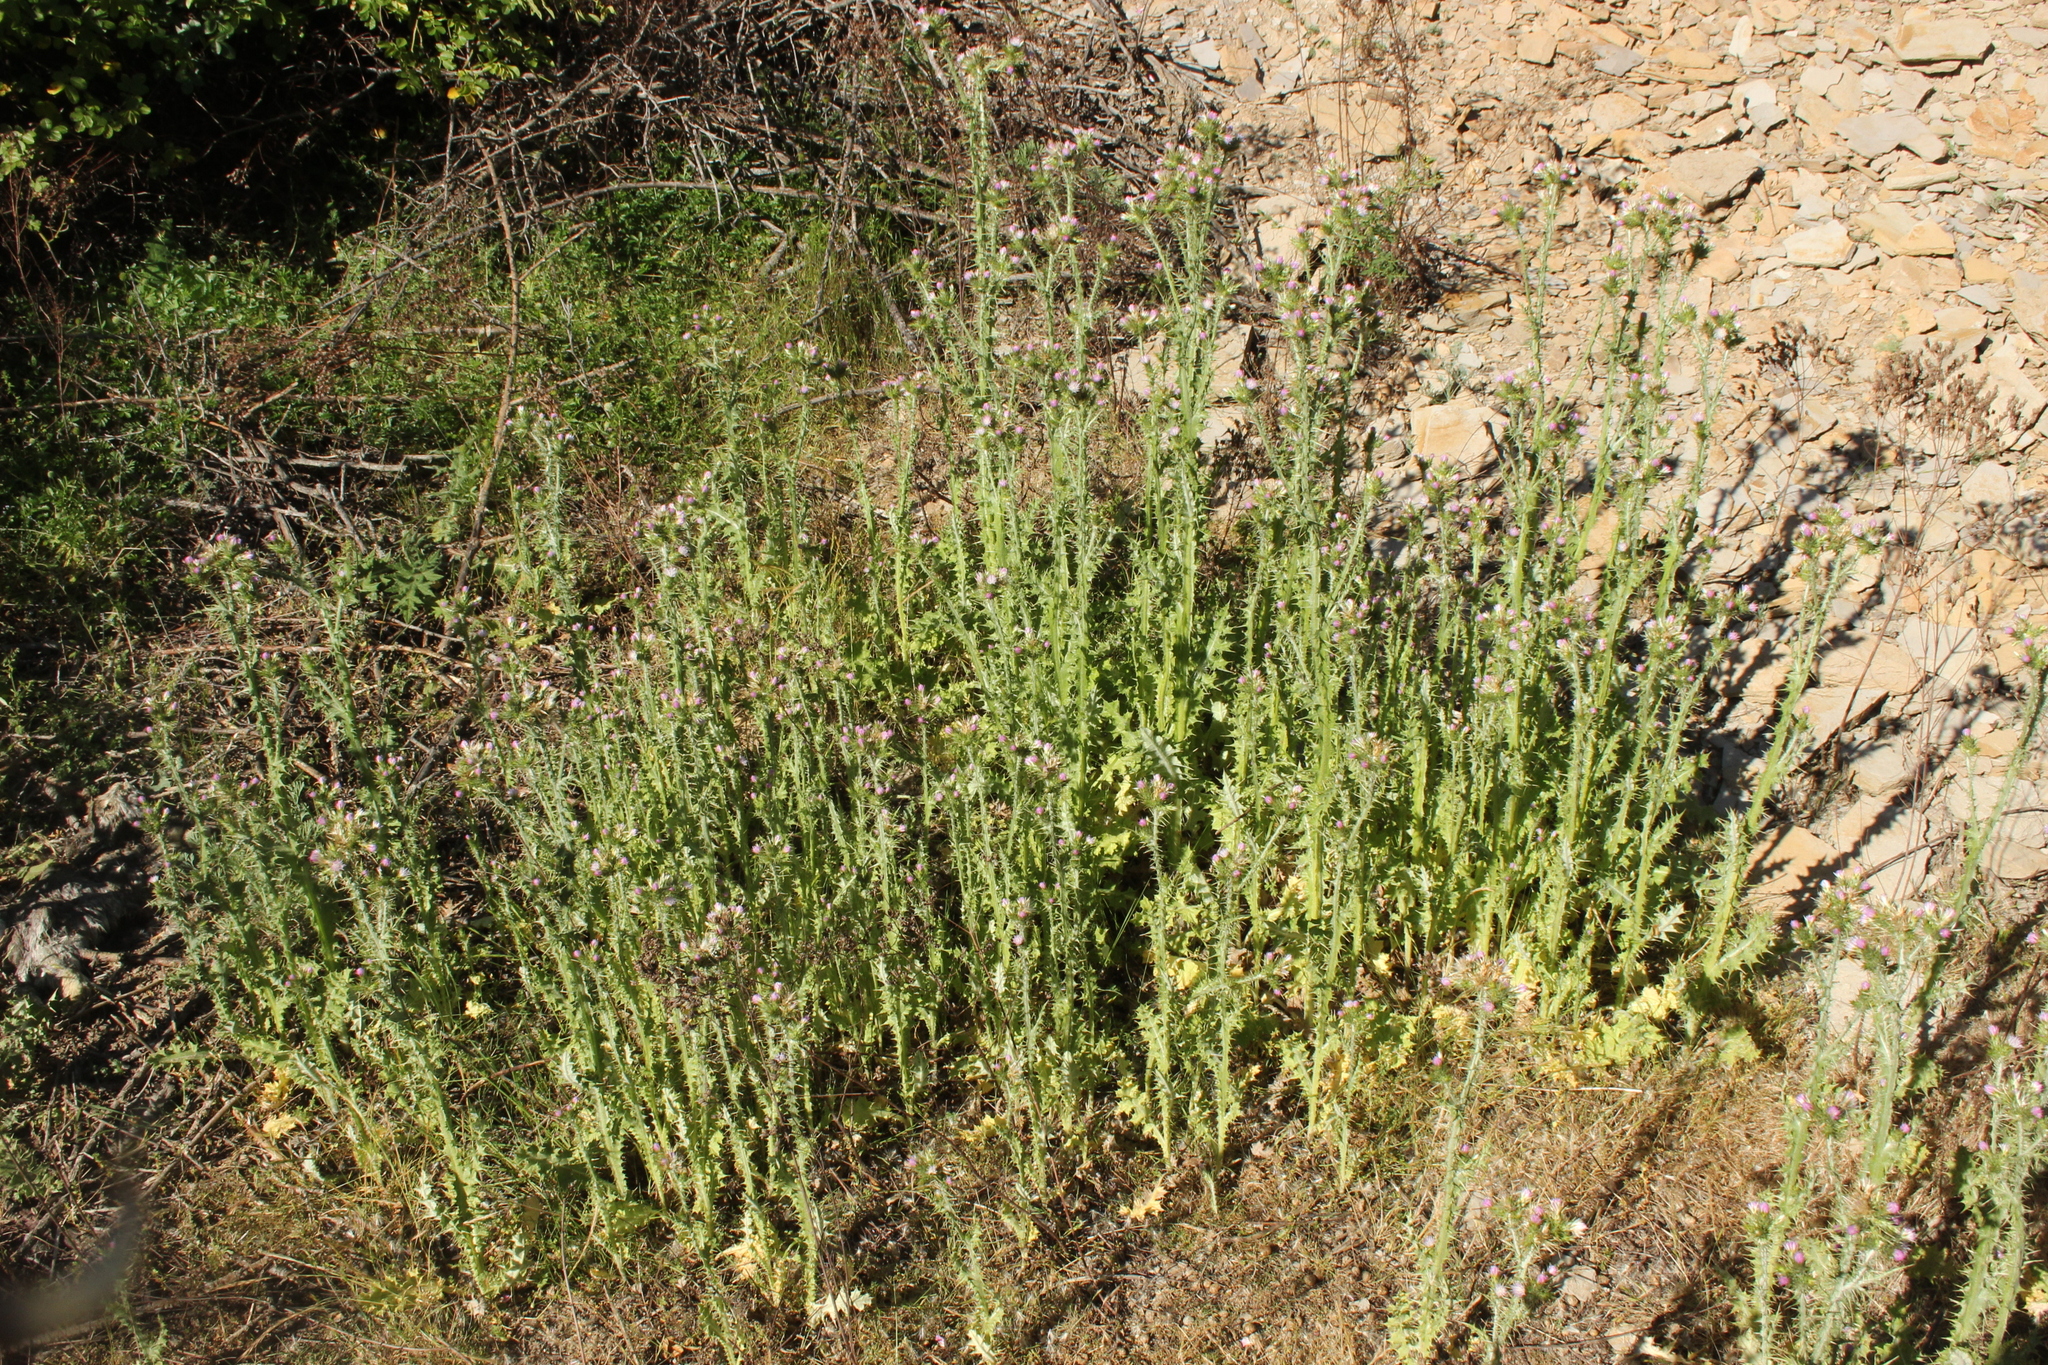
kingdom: Plantae
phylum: Tracheophyta
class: Magnoliopsida
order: Asterales
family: Asteraceae
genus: Carduus
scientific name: Carduus tenuiflorus
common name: Slender thistle
